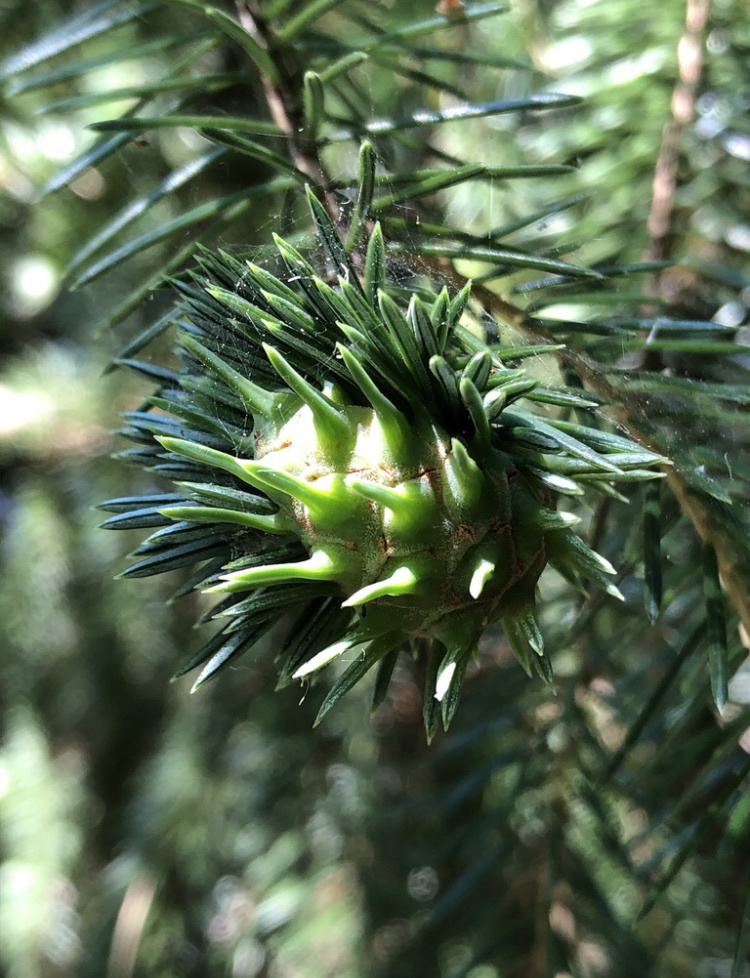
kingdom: Animalia
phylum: Arthropoda
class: Insecta
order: Hemiptera
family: Adelgidae
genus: Adelges
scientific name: Adelges abietis
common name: Eastern spruce gall adelgid
